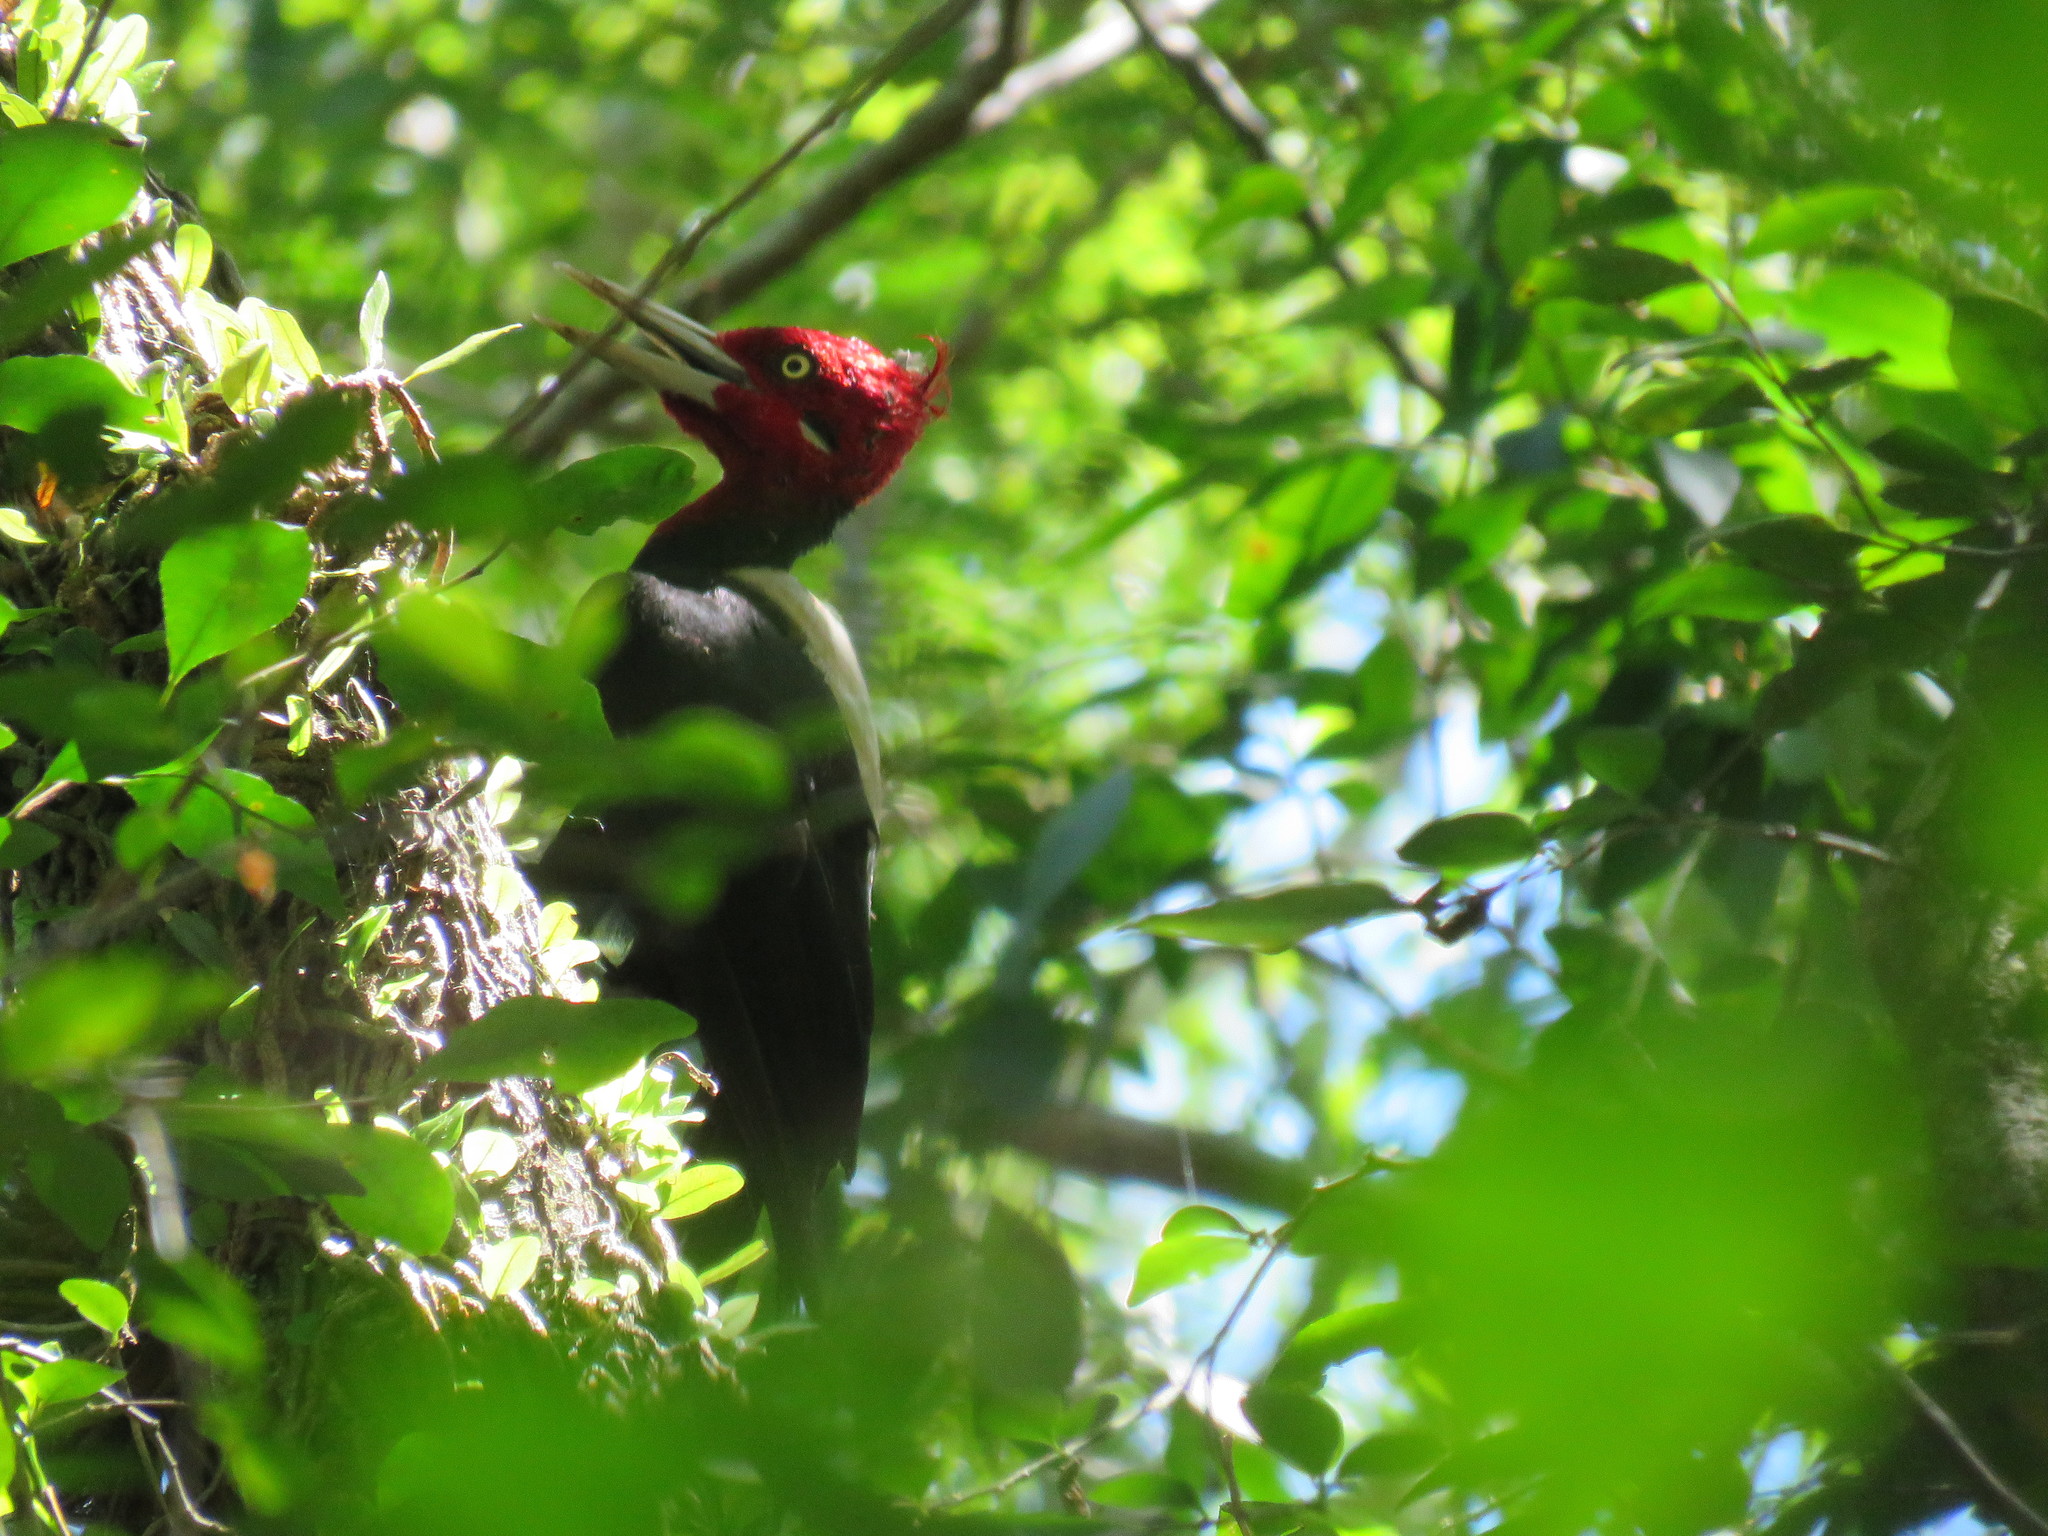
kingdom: Animalia
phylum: Chordata
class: Aves
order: Piciformes
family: Picidae
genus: Campephilus
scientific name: Campephilus leucopogon
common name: Cream-backed woodpecker
